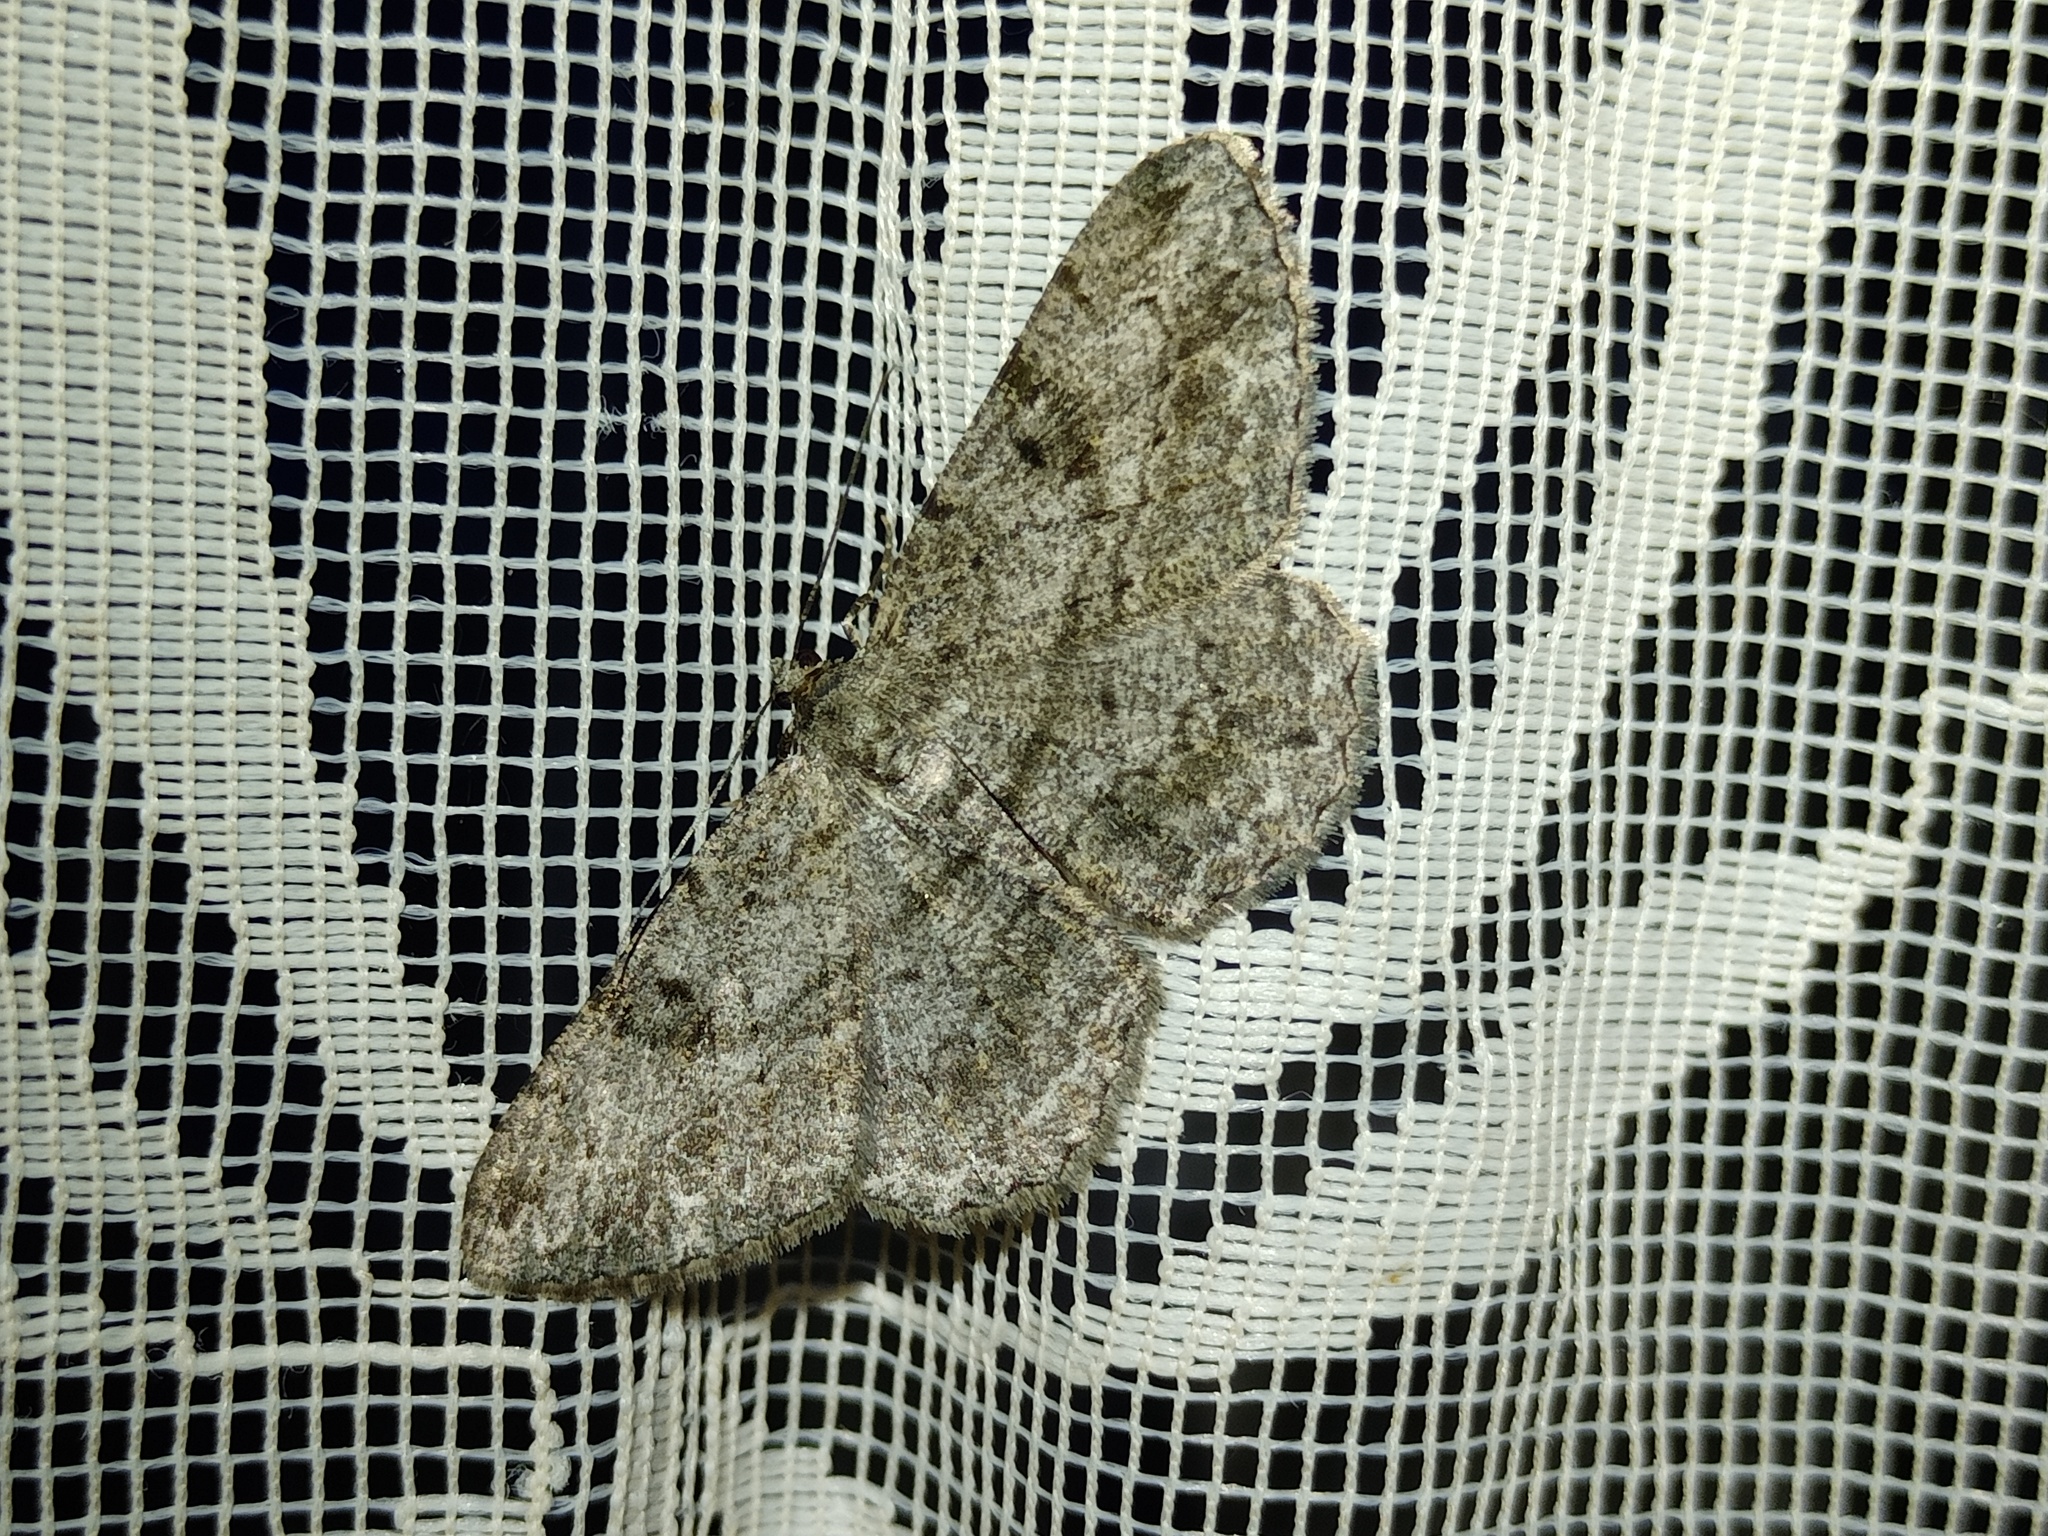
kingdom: Animalia
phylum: Arthropoda
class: Insecta
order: Lepidoptera
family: Geometridae
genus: Peribatodes
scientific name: Peribatodes rhomboidaria
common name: Willow beauty
